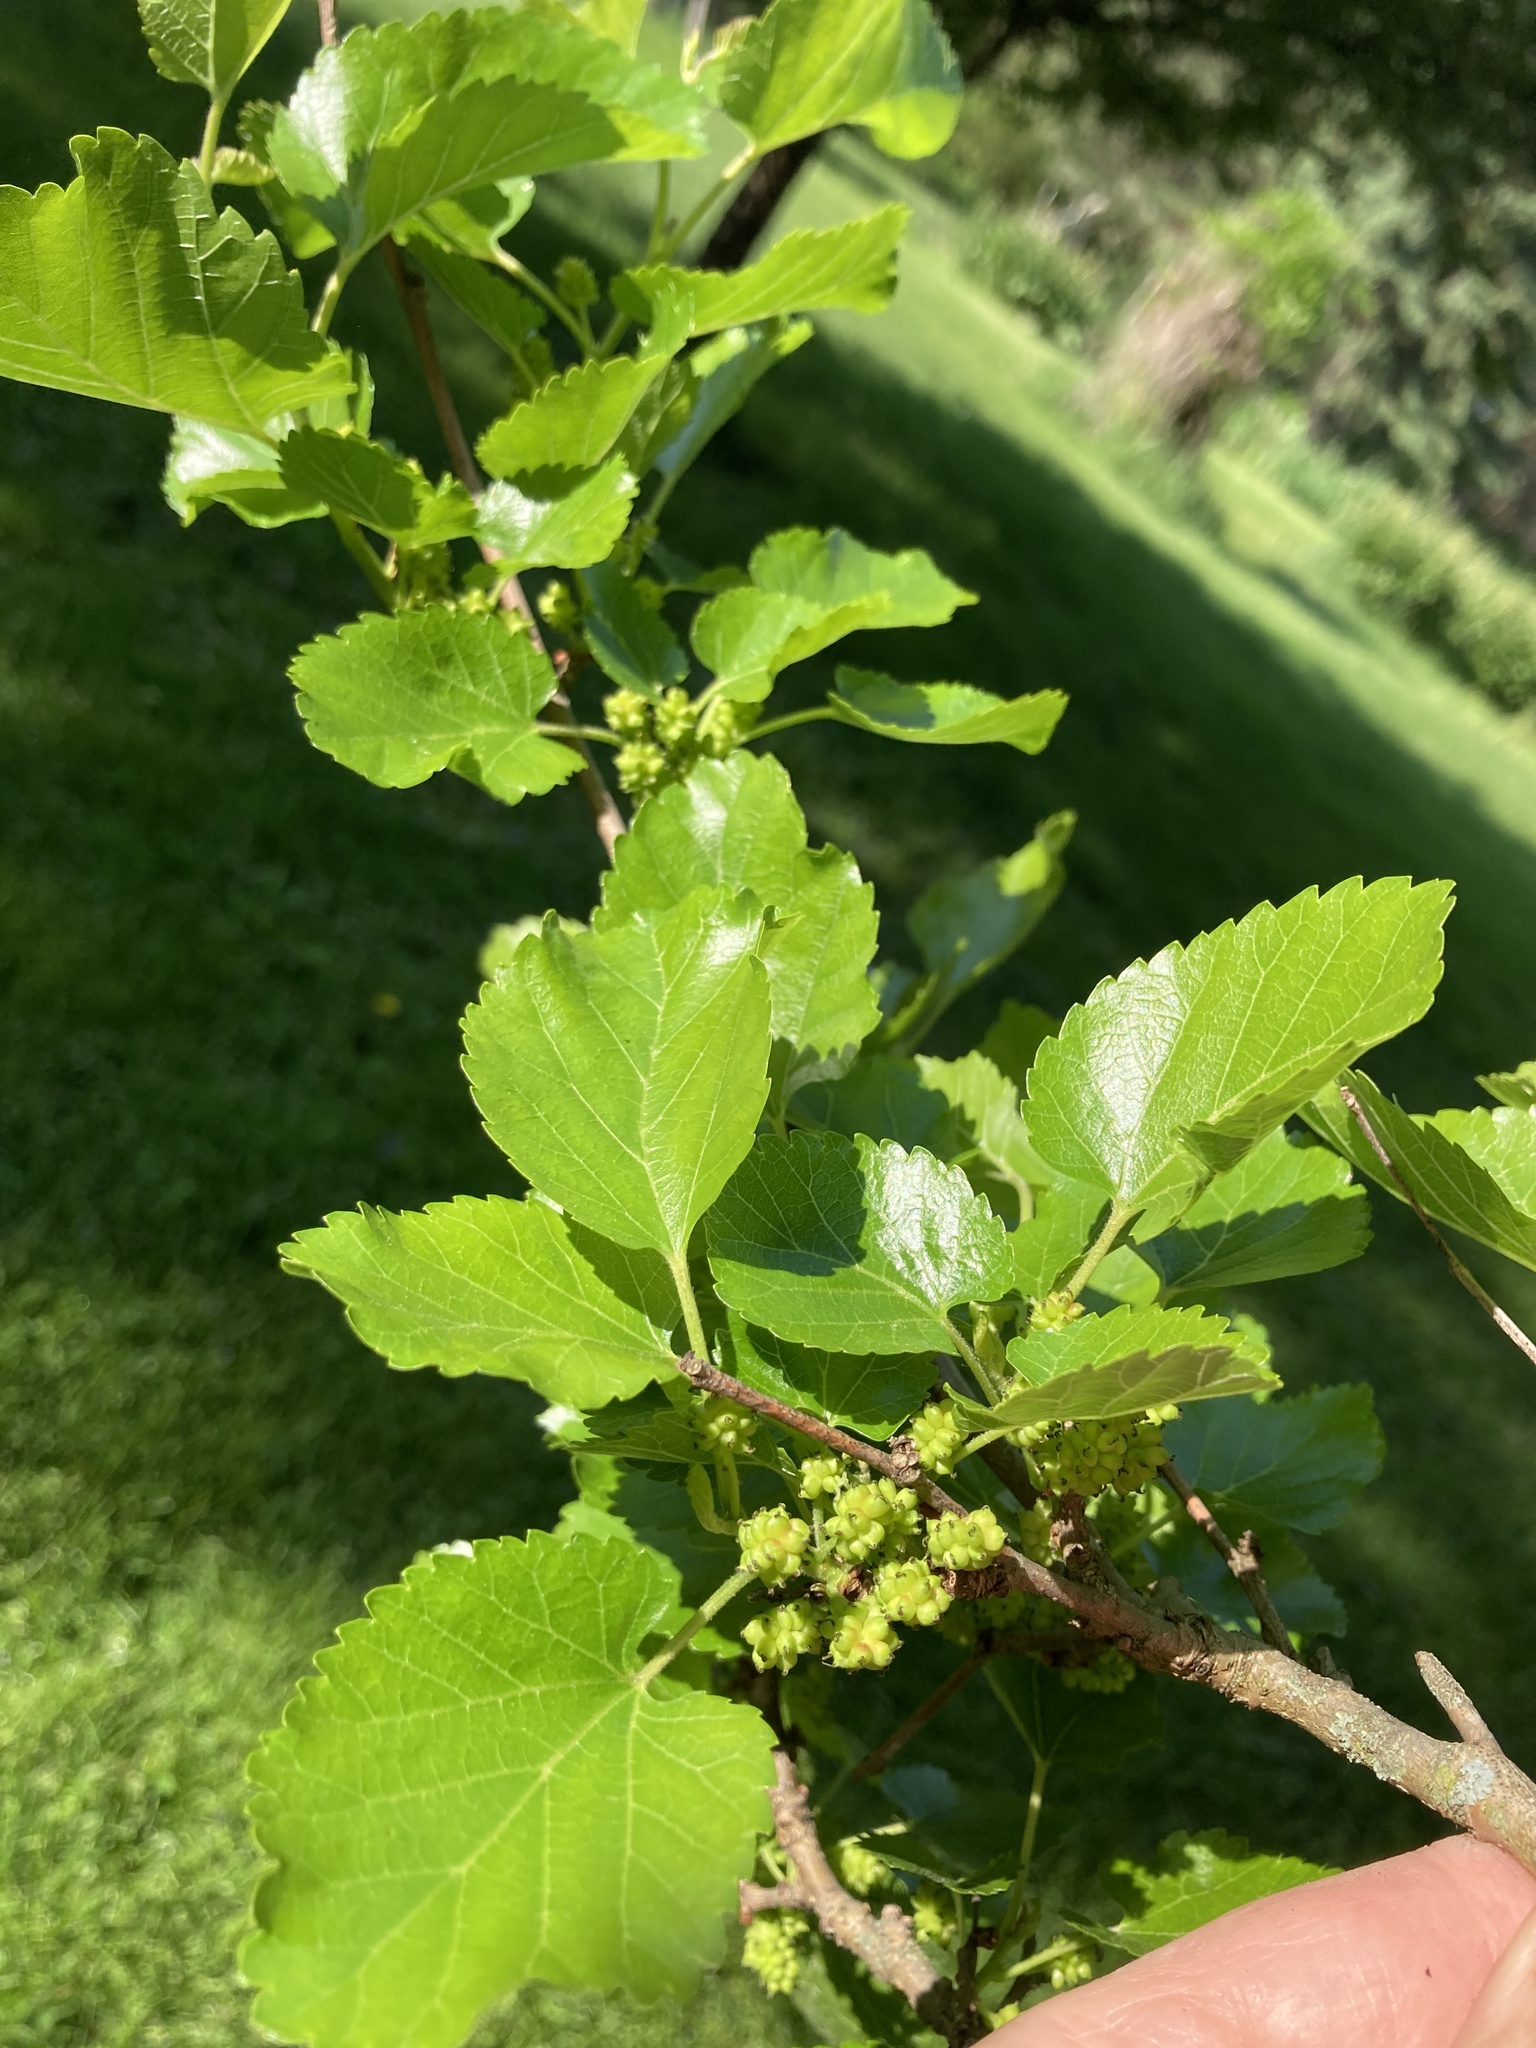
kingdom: Plantae
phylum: Tracheophyta
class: Magnoliopsida
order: Rosales
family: Moraceae
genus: Morus
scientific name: Morus alba
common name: White mulberry
